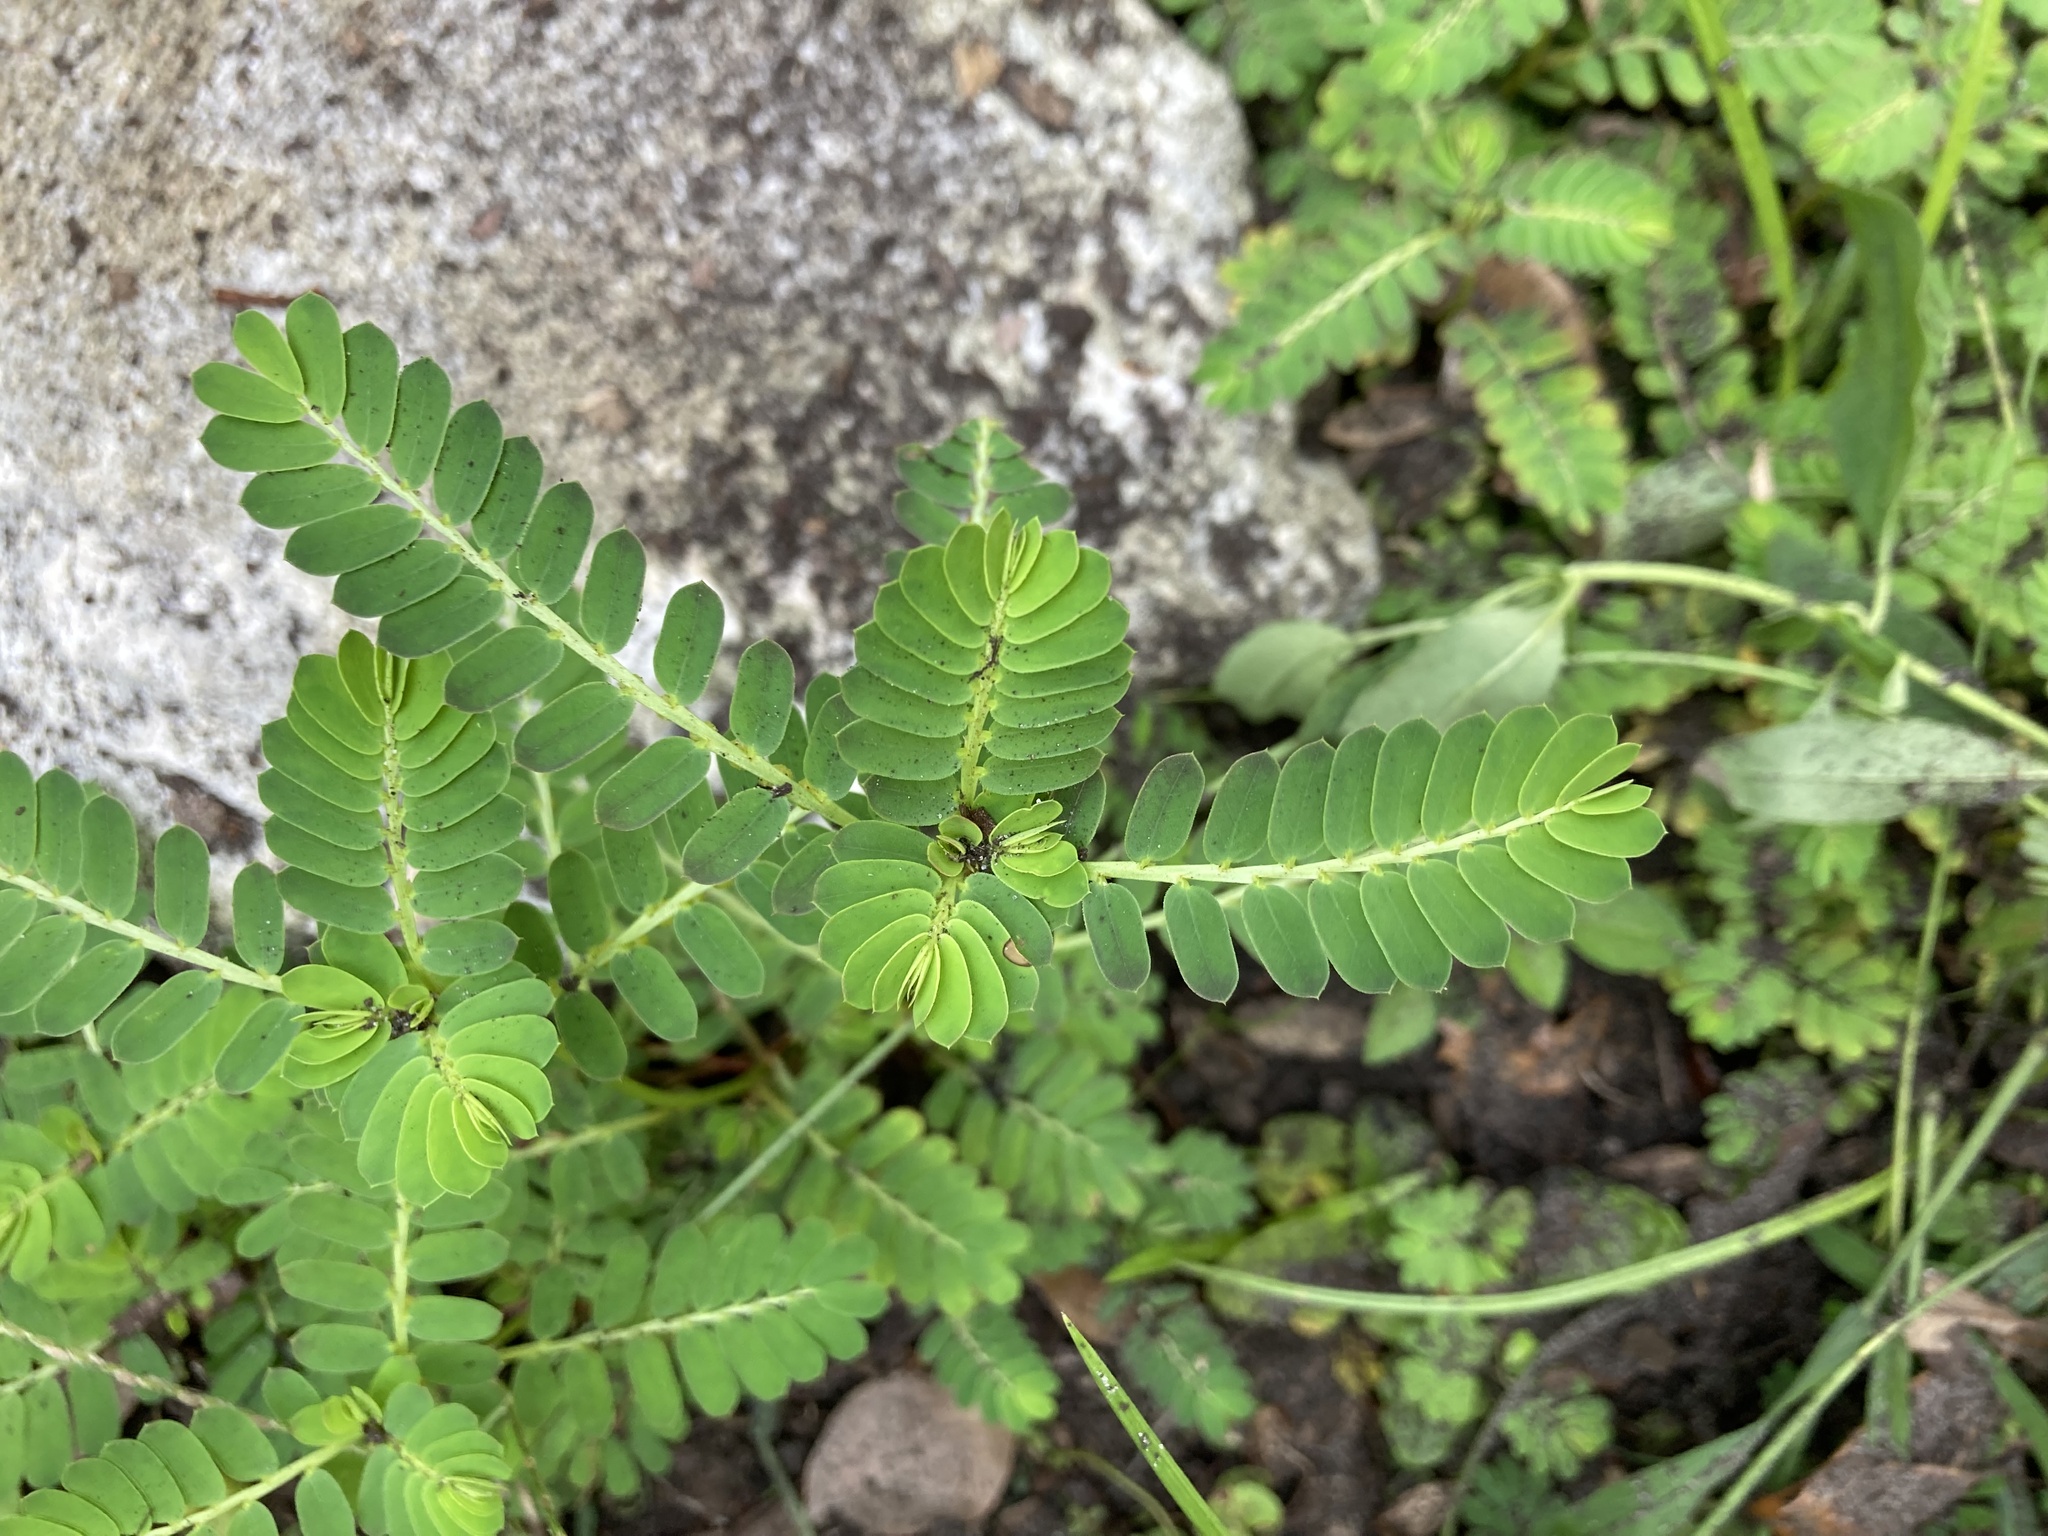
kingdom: Plantae
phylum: Tracheophyta
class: Magnoliopsida
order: Malpighiales
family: Phyllanthaceae
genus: Phyllanthus
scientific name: Phyllanthus urinaria
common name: Chamber bitter
